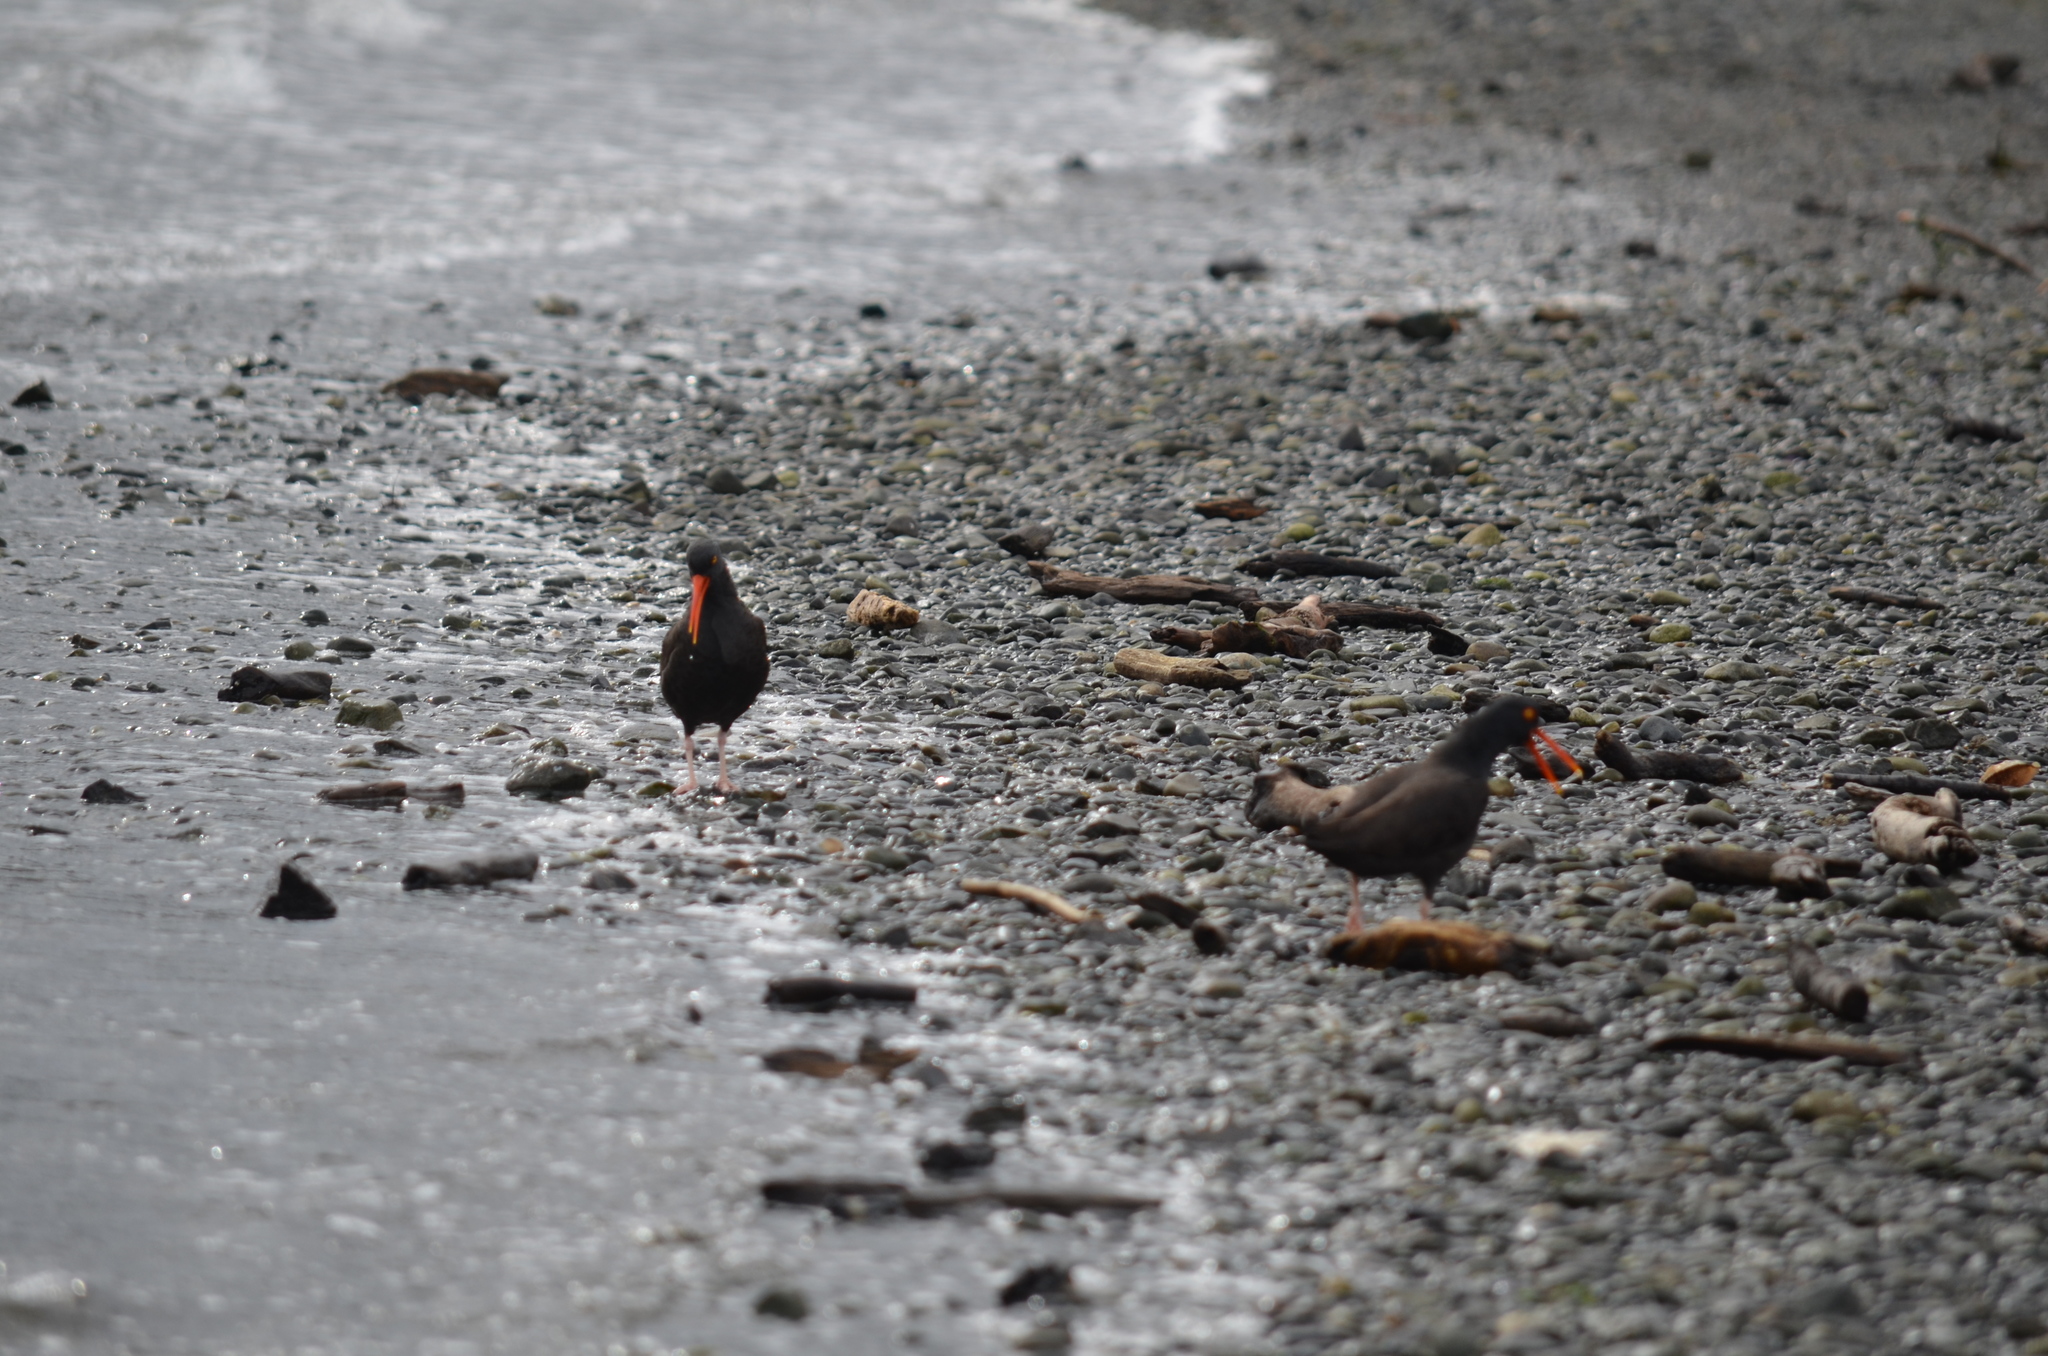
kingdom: Animalia
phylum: Chordata
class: Aves
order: Charadriiformes
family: Haematopodidae
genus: Haematopus
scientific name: Haematopus bachmani
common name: Black oystercatcher
